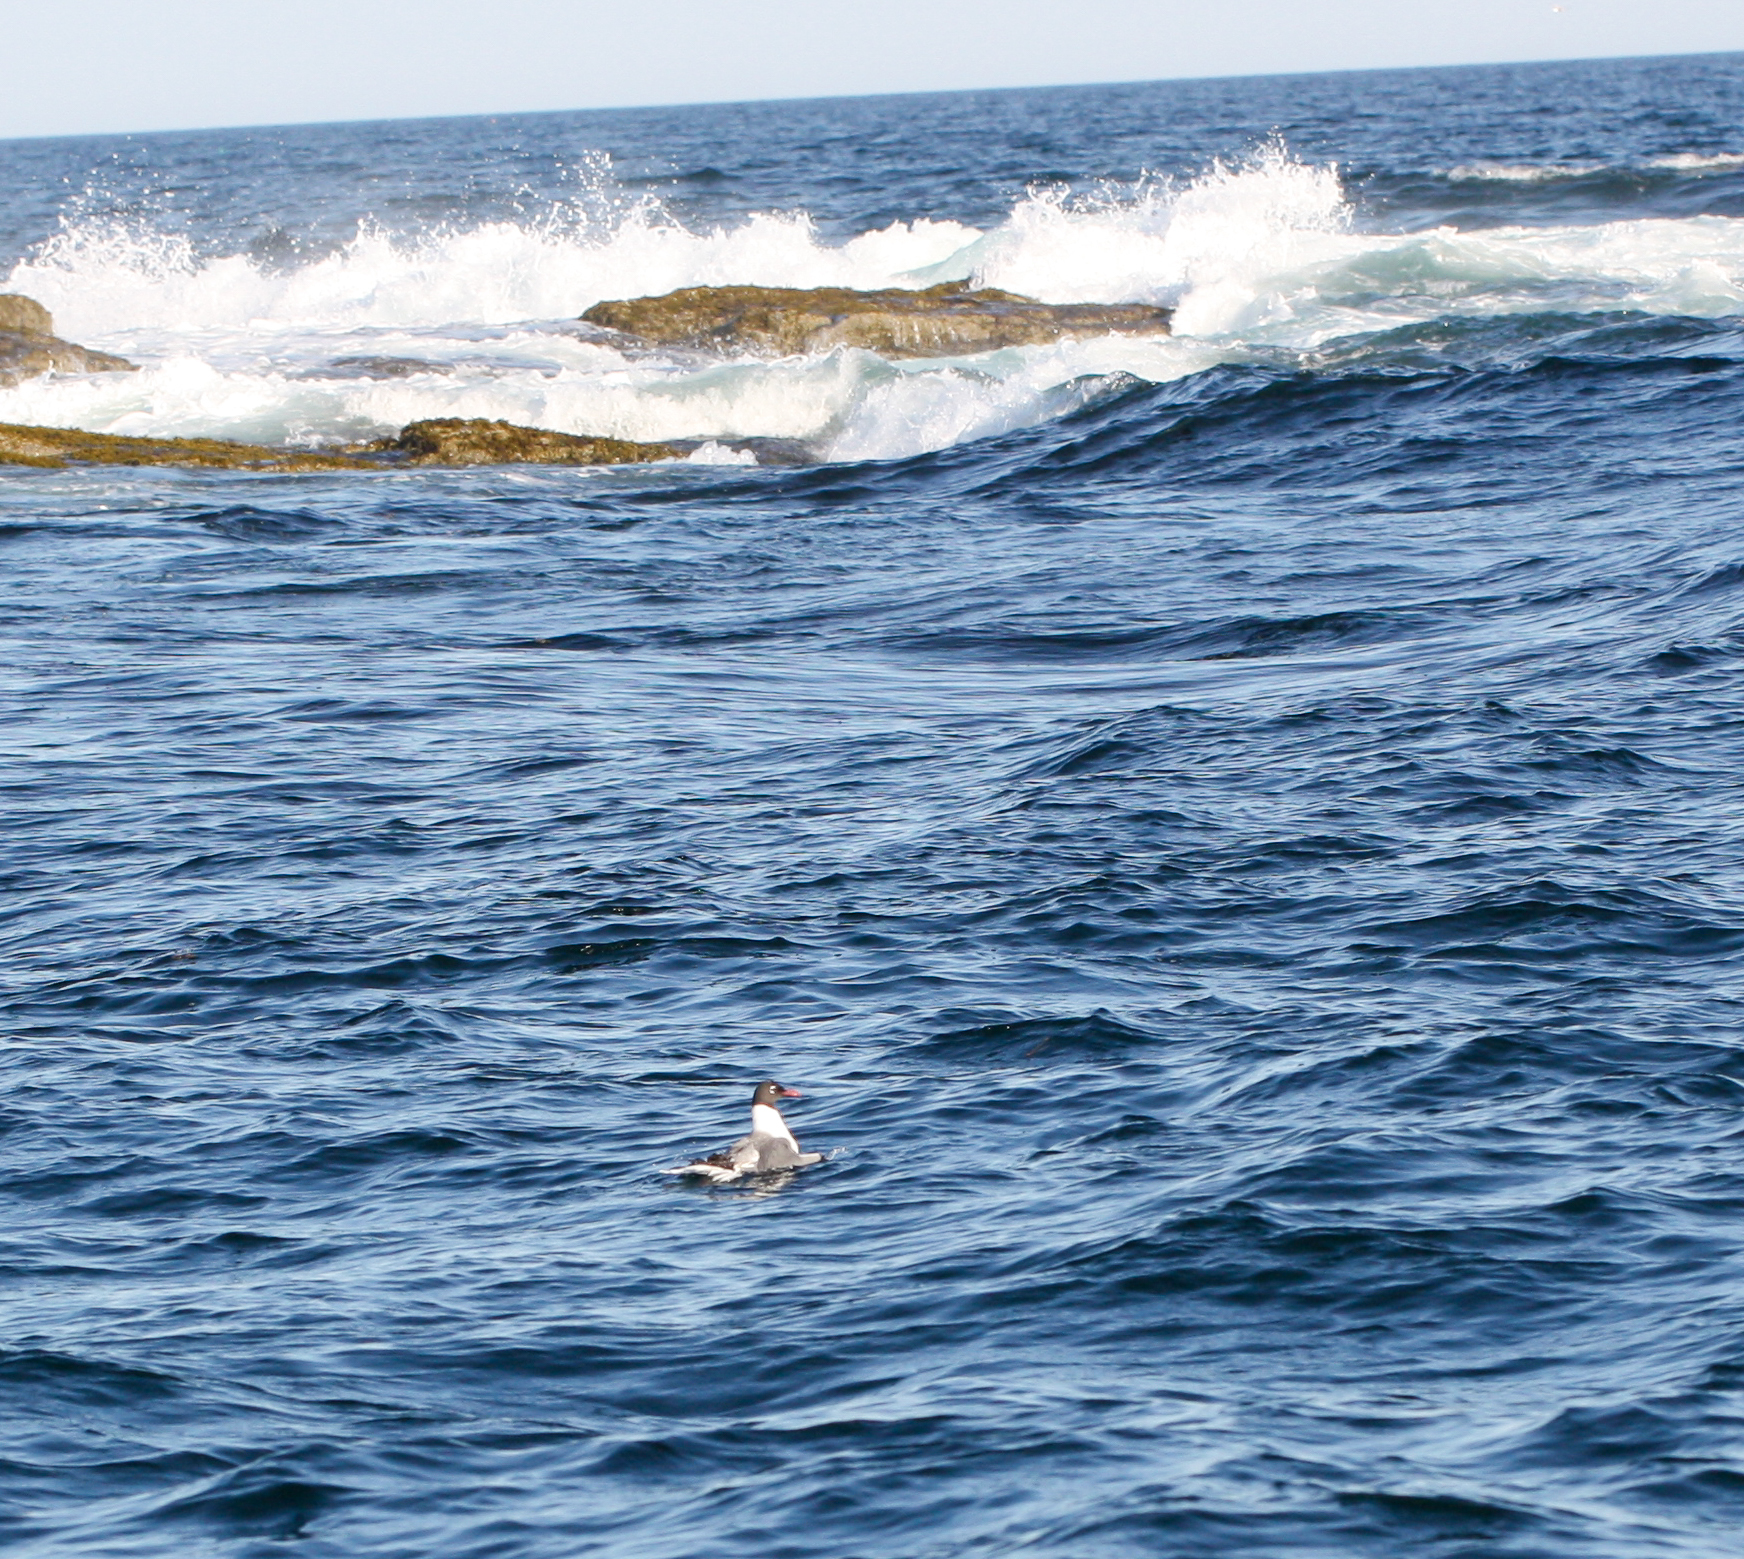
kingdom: Animalia
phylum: Chordata
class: Aves
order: Charadriiformes
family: Laridae
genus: Leucophaeus
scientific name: Leucophaeus atricilla
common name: Laughing gull
